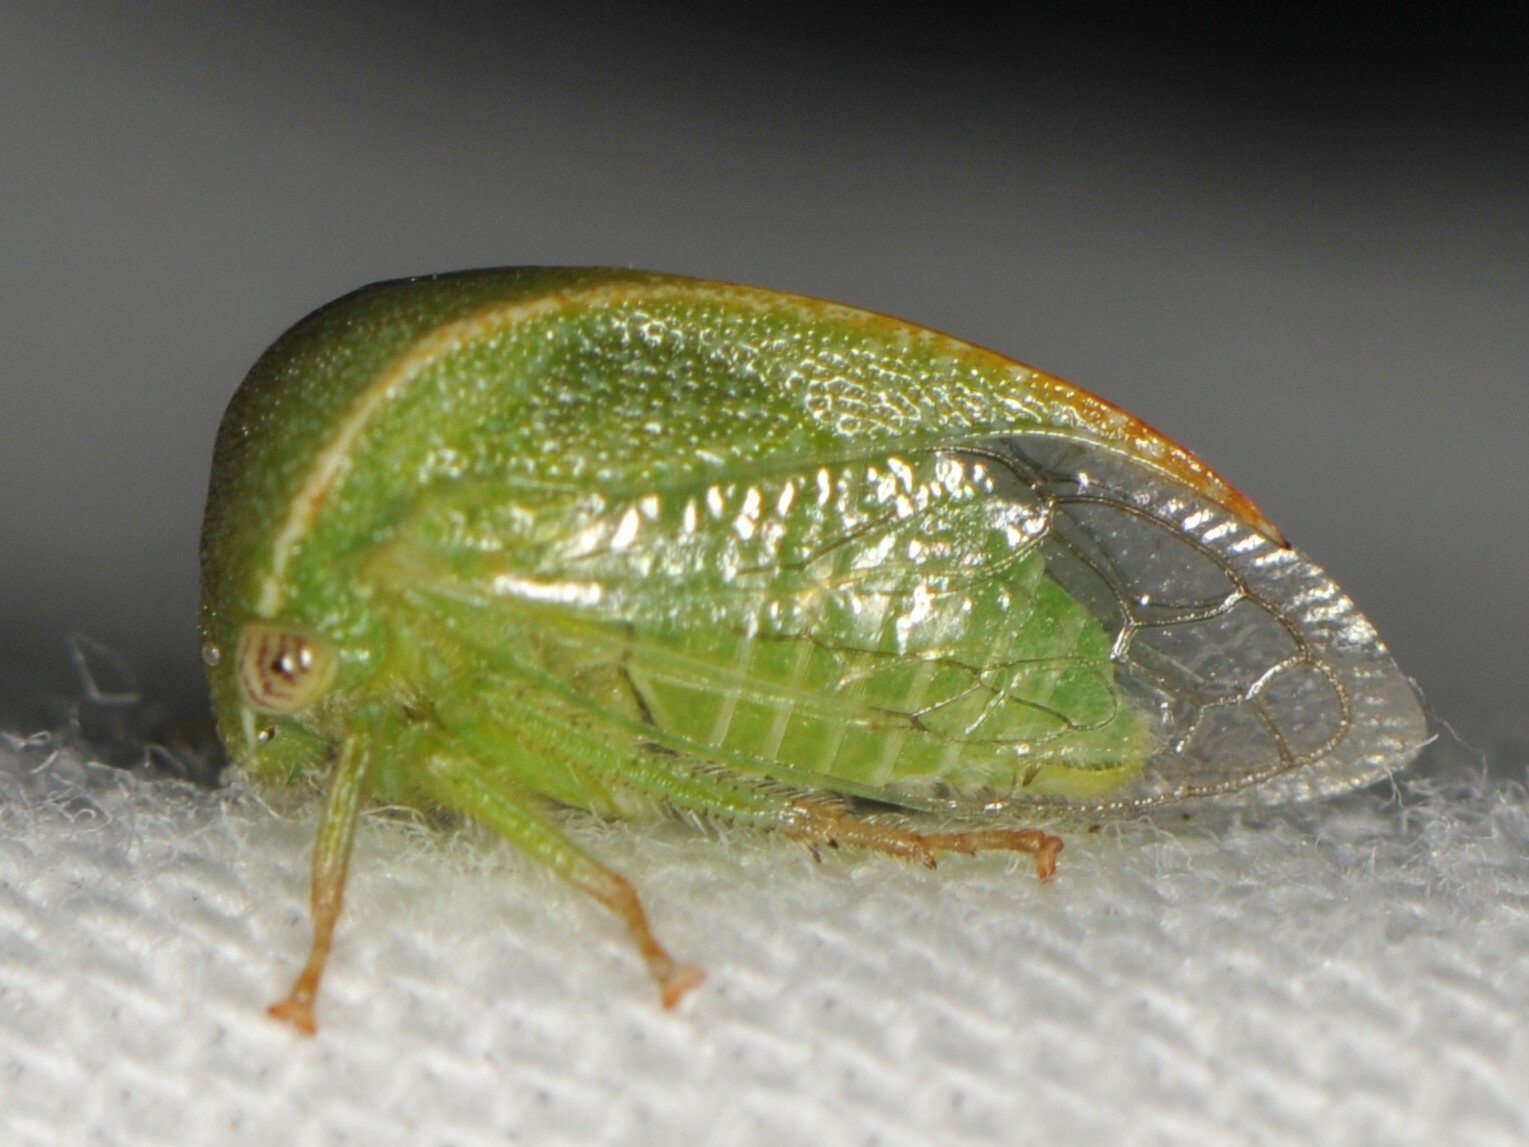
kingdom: Animalia
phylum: Arthropoda
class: Insecta
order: Hemiptera
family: Membracidae
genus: Spissistilus
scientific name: Spissistilus festina
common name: Membracid bug
